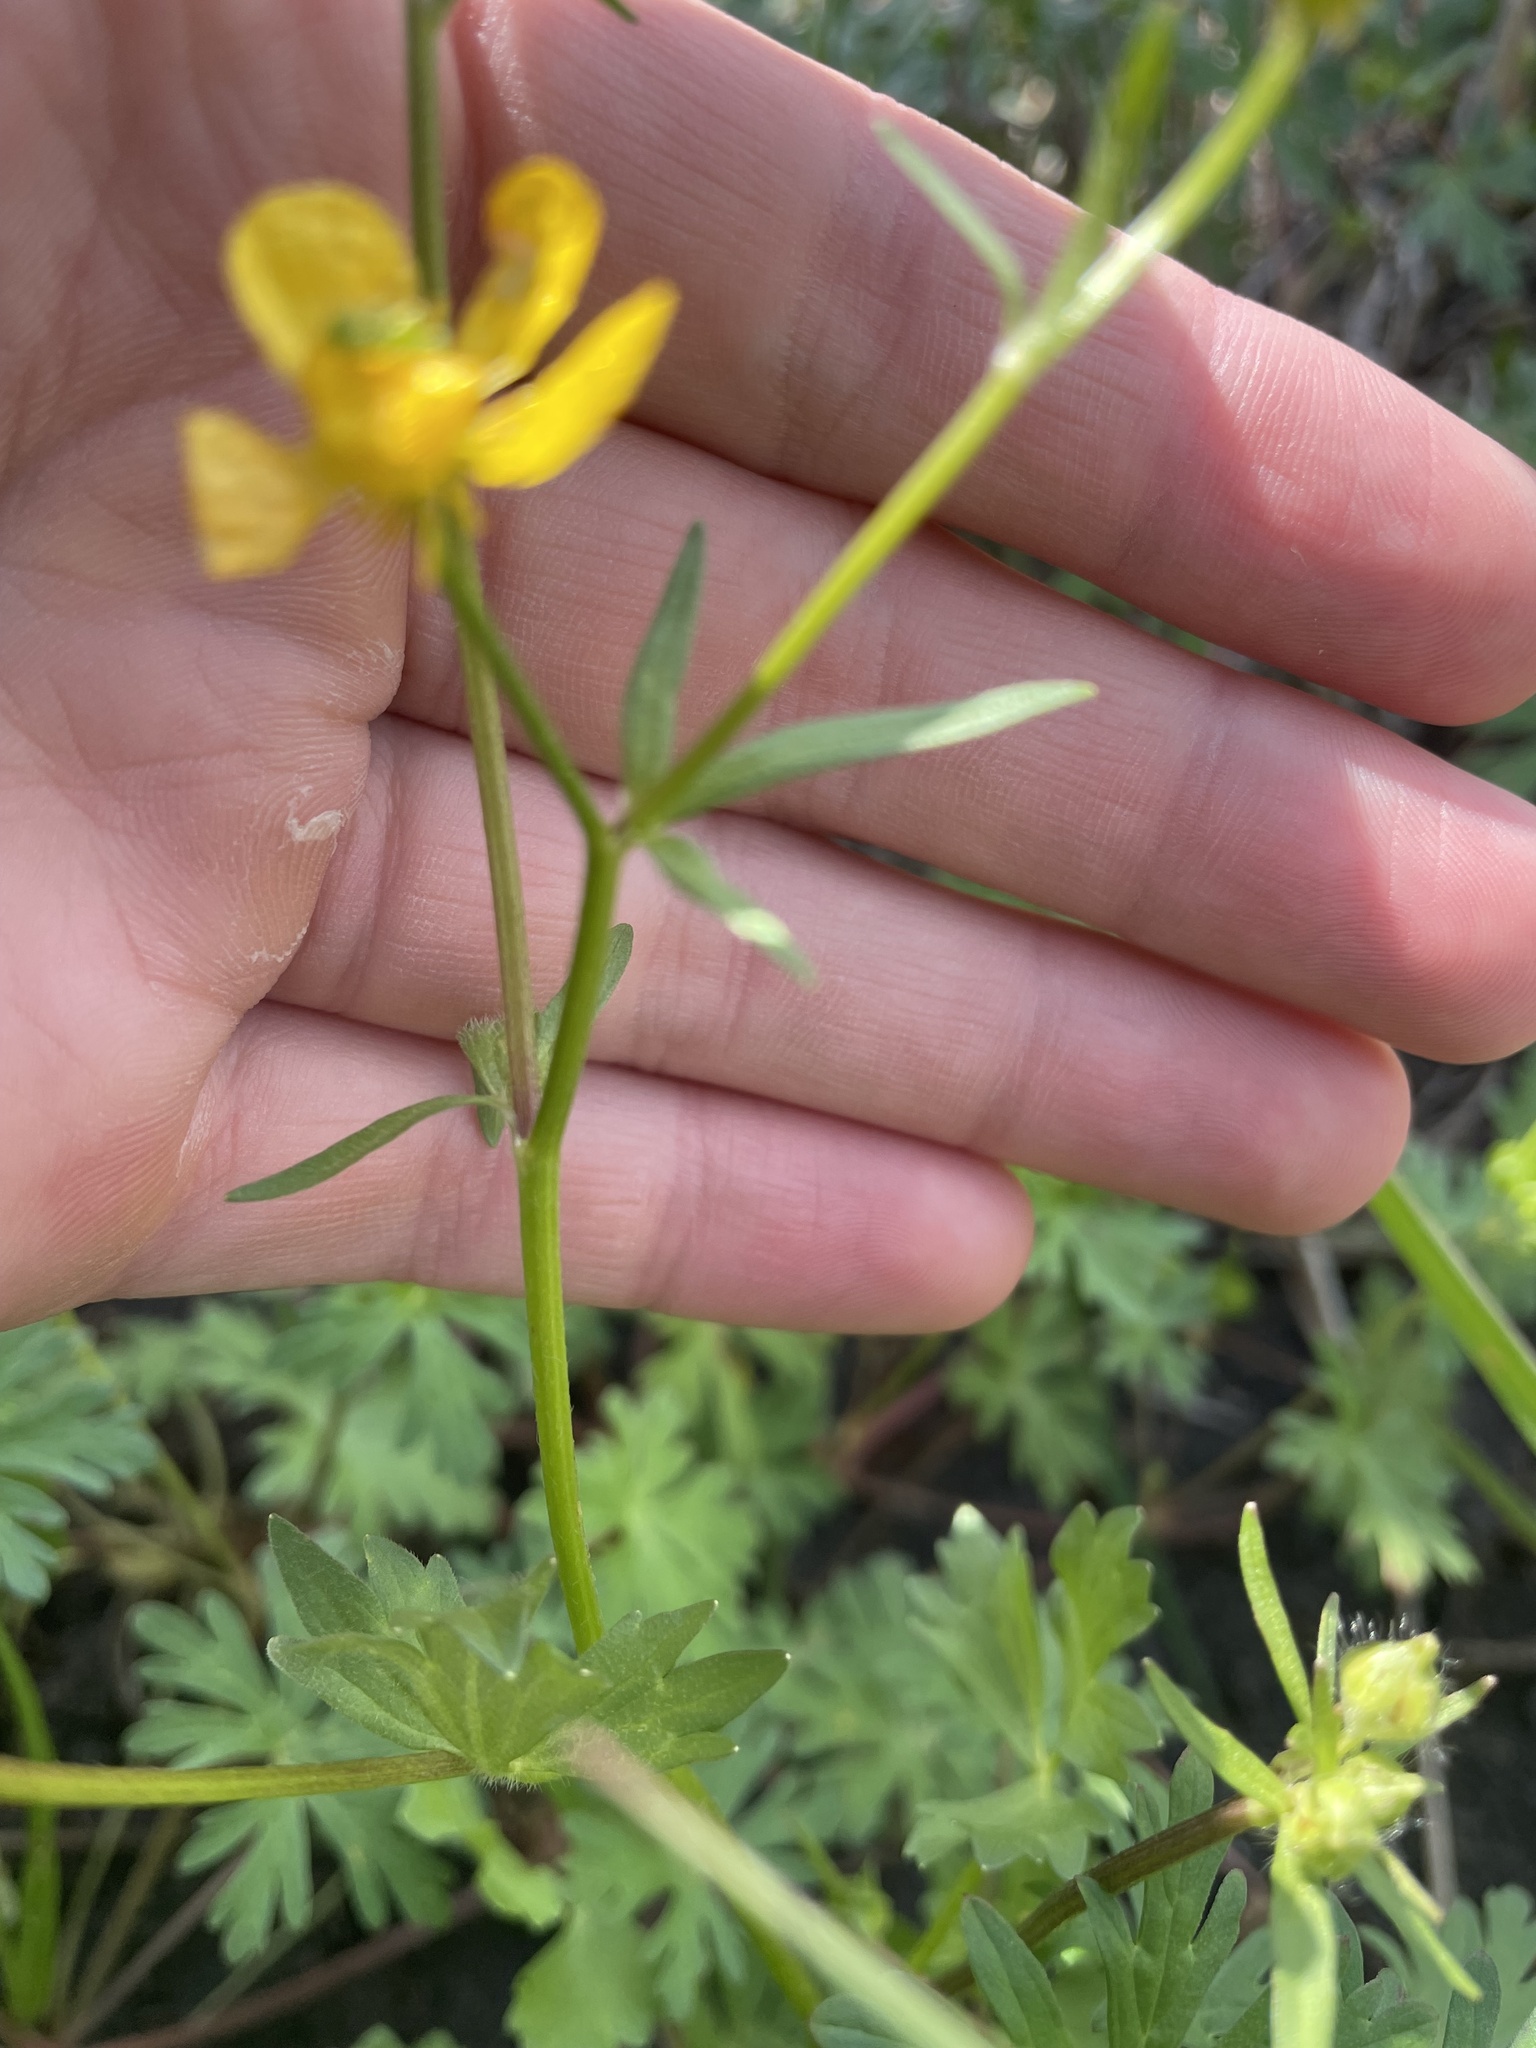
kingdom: Plantae
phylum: Tracheophyta
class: Magnoliopsida
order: Ranunculales
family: Ranunculaceae
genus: Ranunculus
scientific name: Ranunculus sardous
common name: Hairy buttercup
